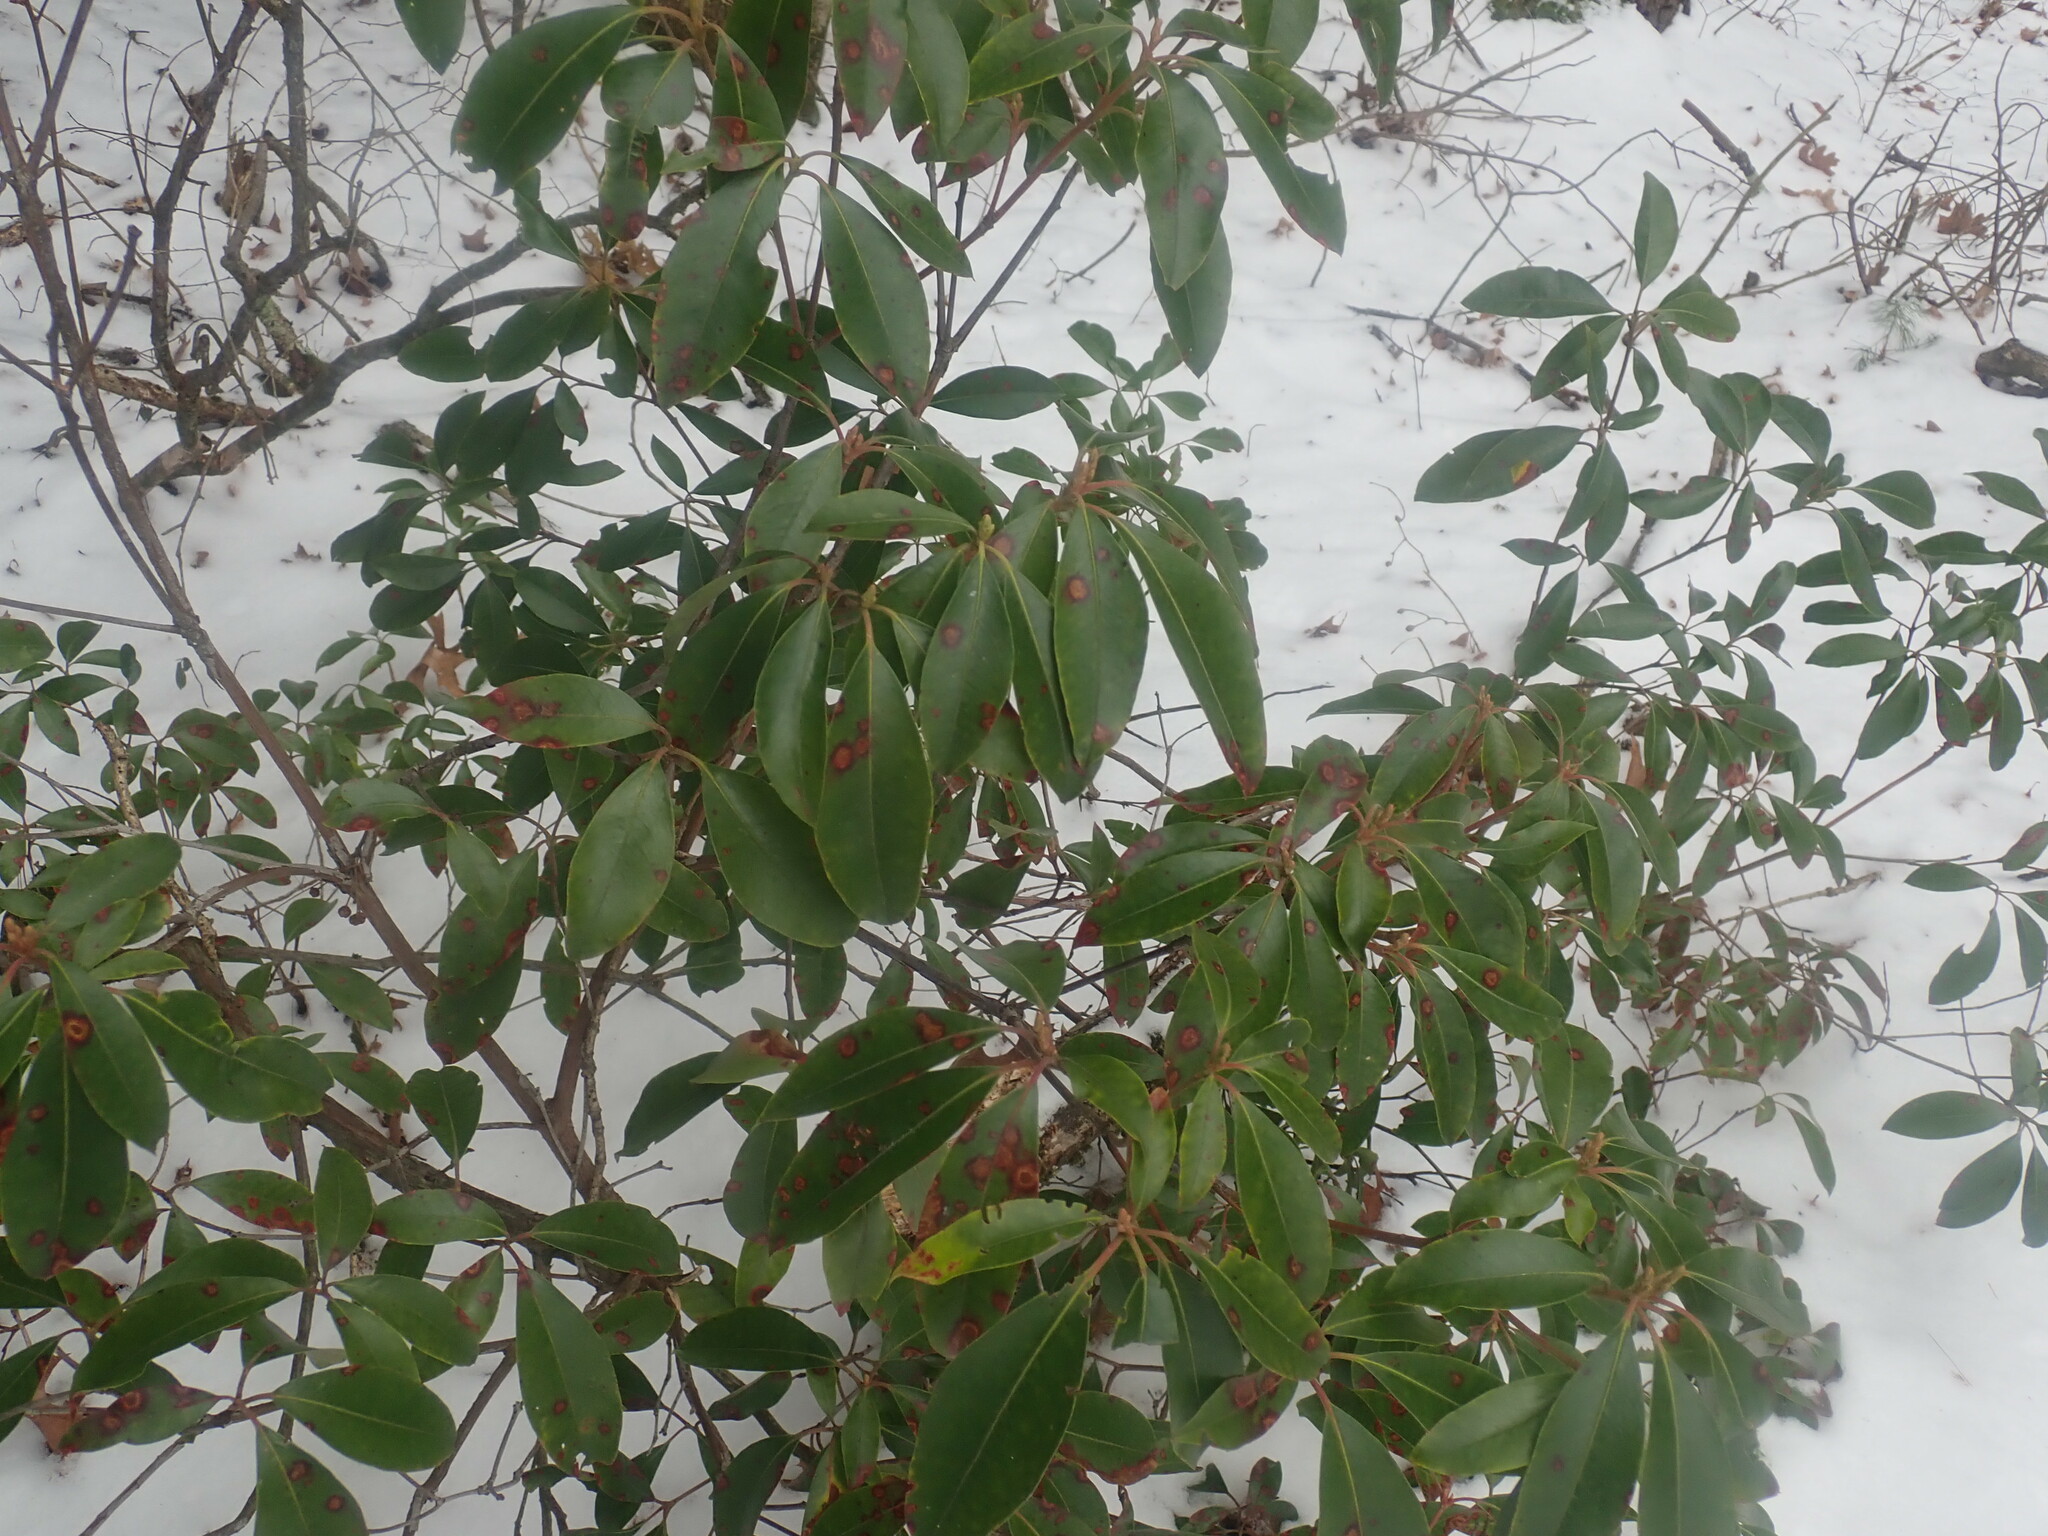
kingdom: Plantae
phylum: Tracheophyta
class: Magnoliopsida
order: Ericales
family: Ericaceae
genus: Kalmia
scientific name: Kalmia latifolia
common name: Mountain-laurel
